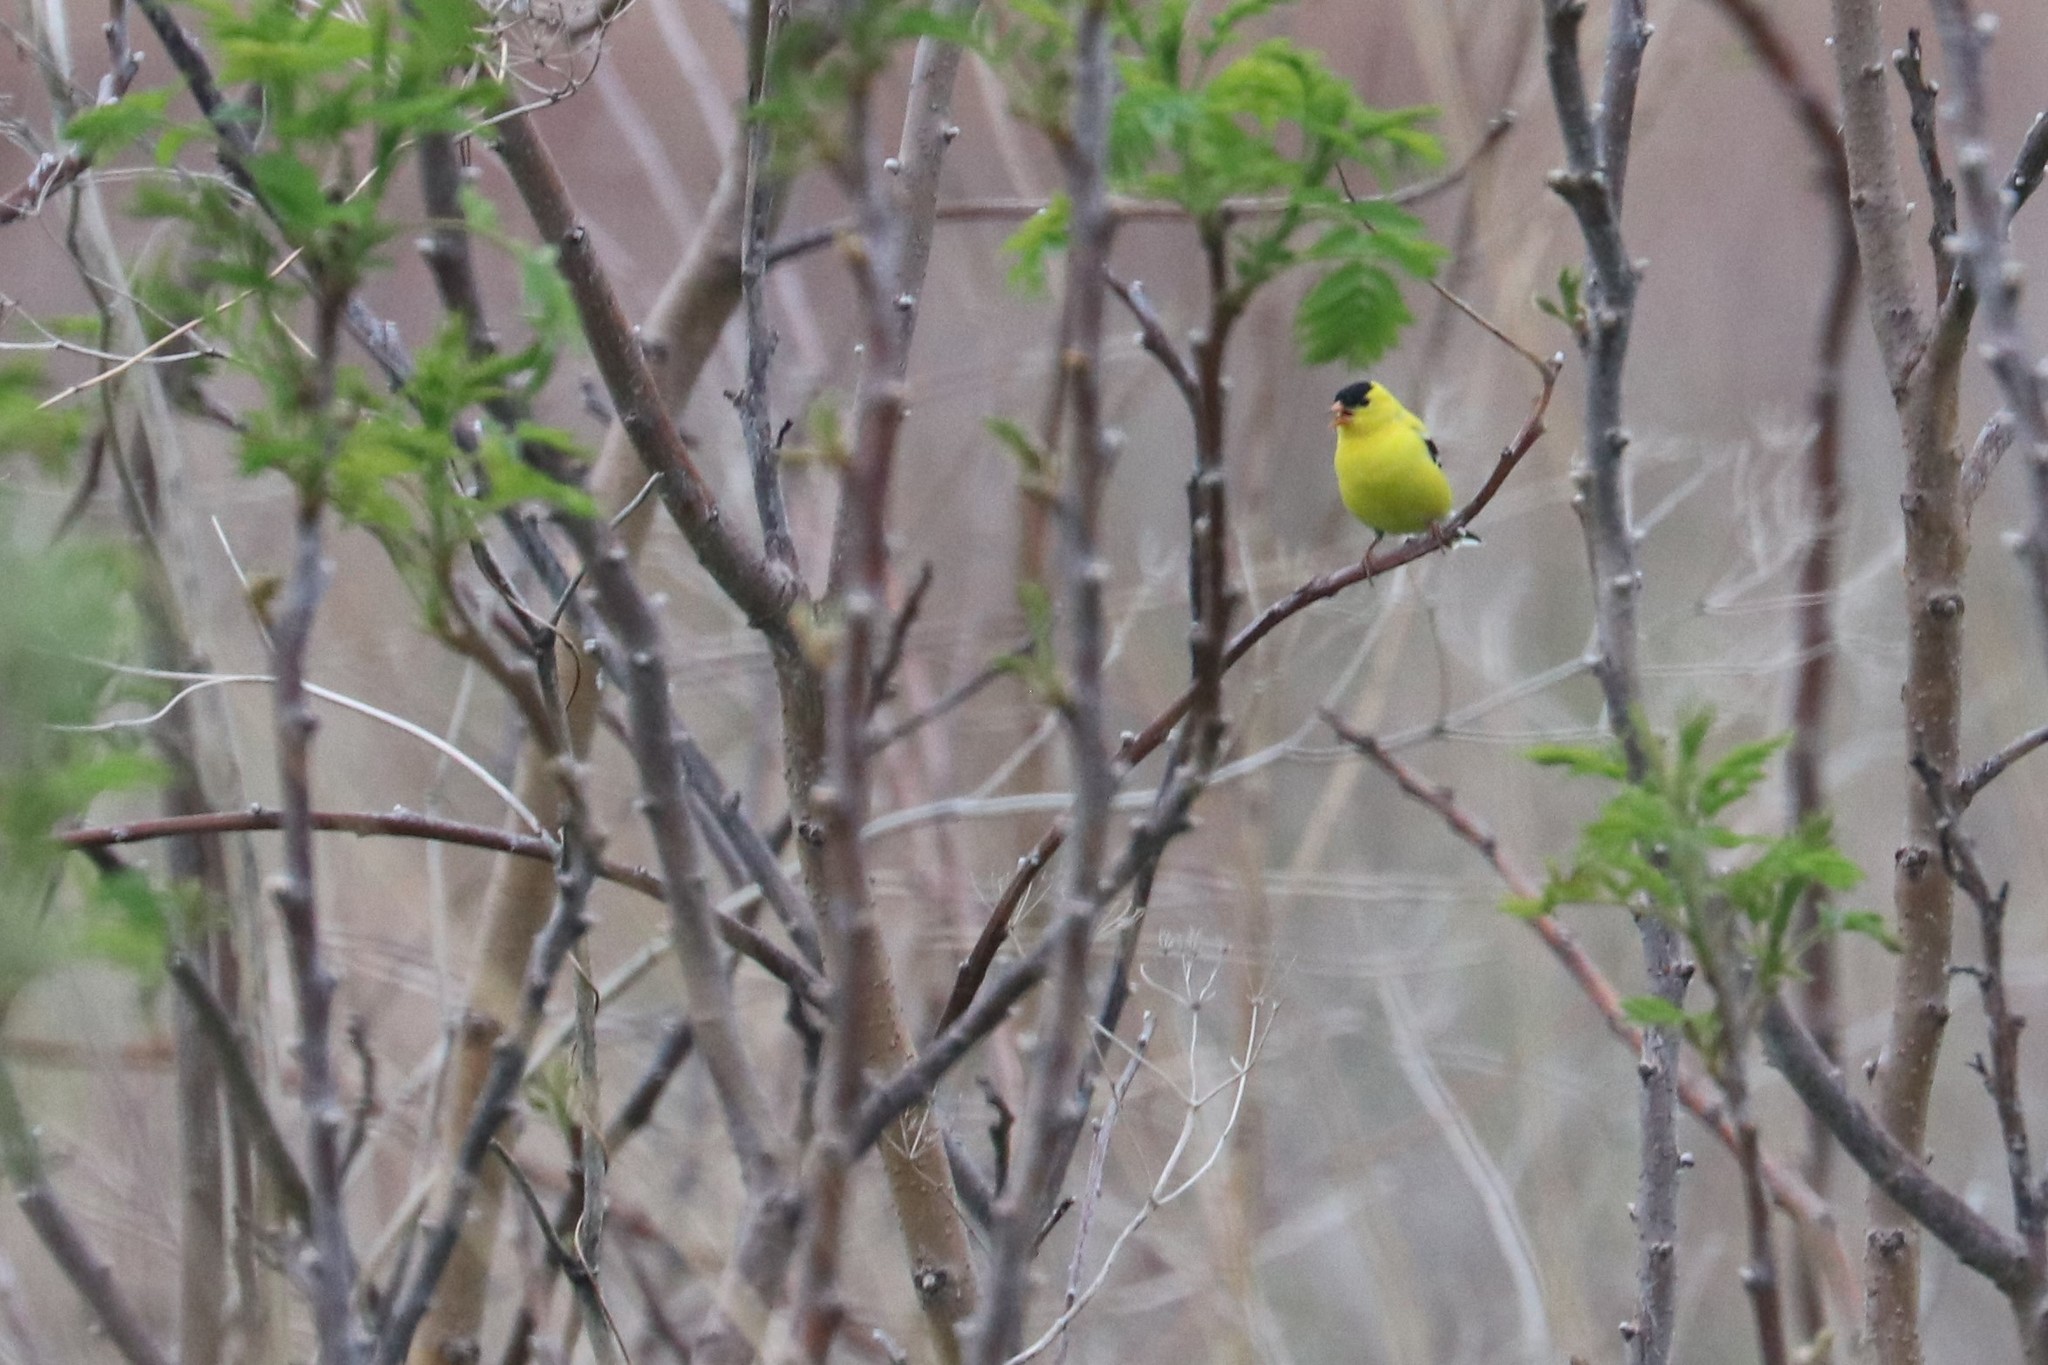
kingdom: Animalia
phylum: Chordata
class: Aves
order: Passeriformes
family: Fringillidae
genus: Spinus
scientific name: Spinus tristis
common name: American goldfinch
